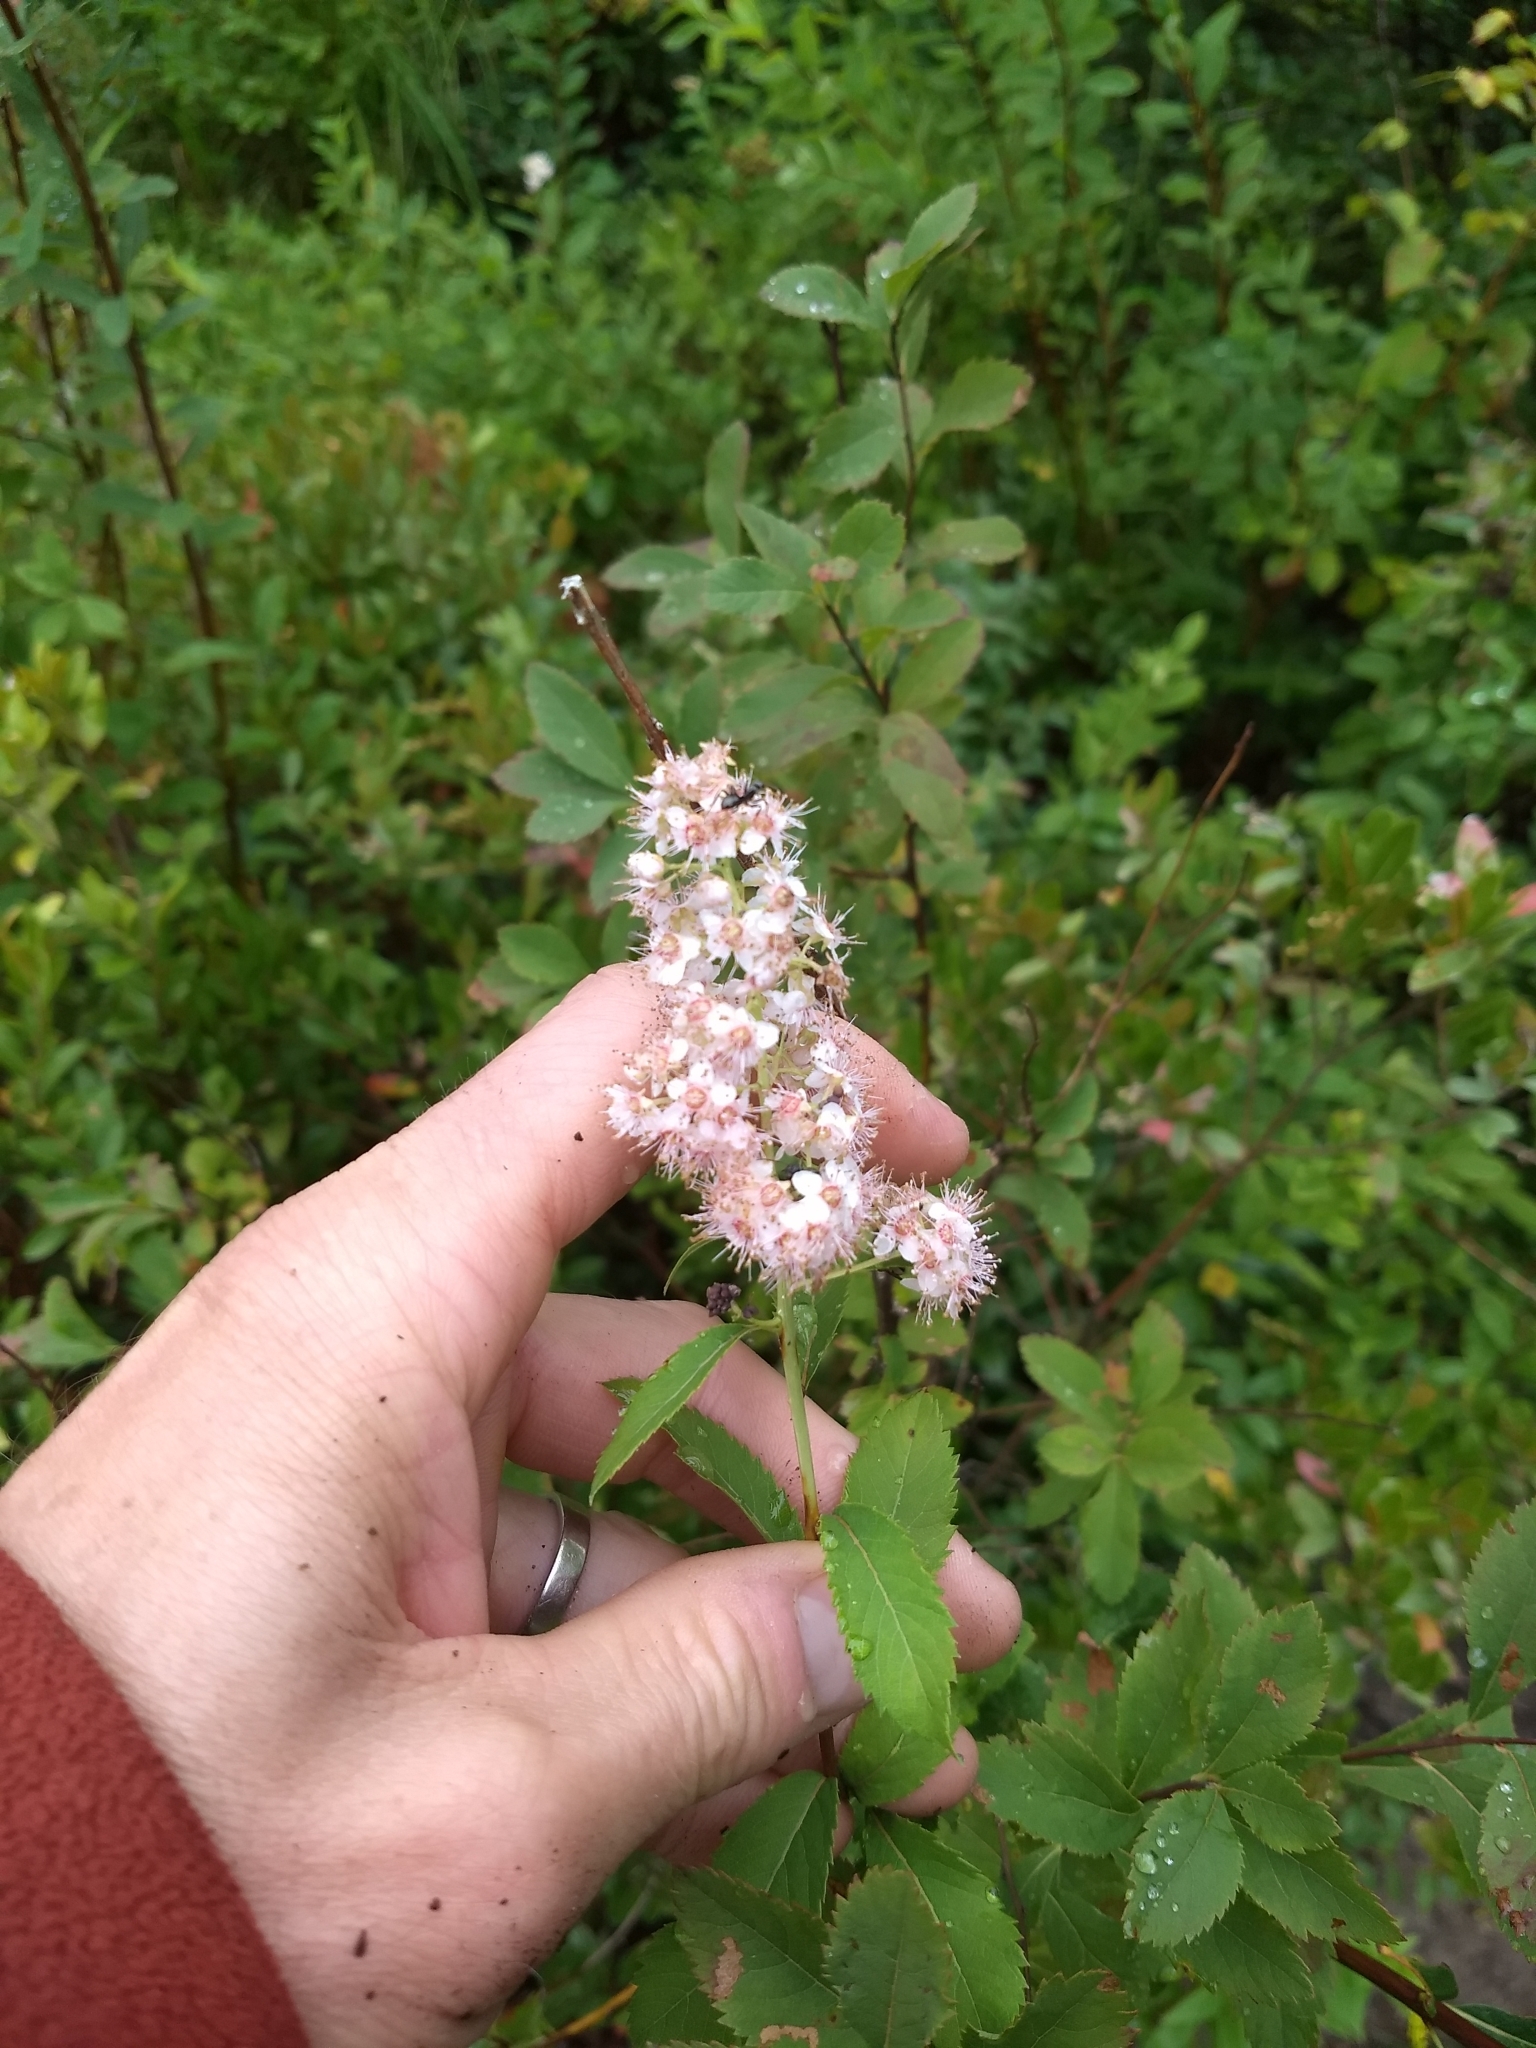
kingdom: Plantae
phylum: Tracheophyta
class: Magnoliopsida
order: Rosales
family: Rosaceae
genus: Spiraea
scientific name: Spiraea alba
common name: Pale bridewort
